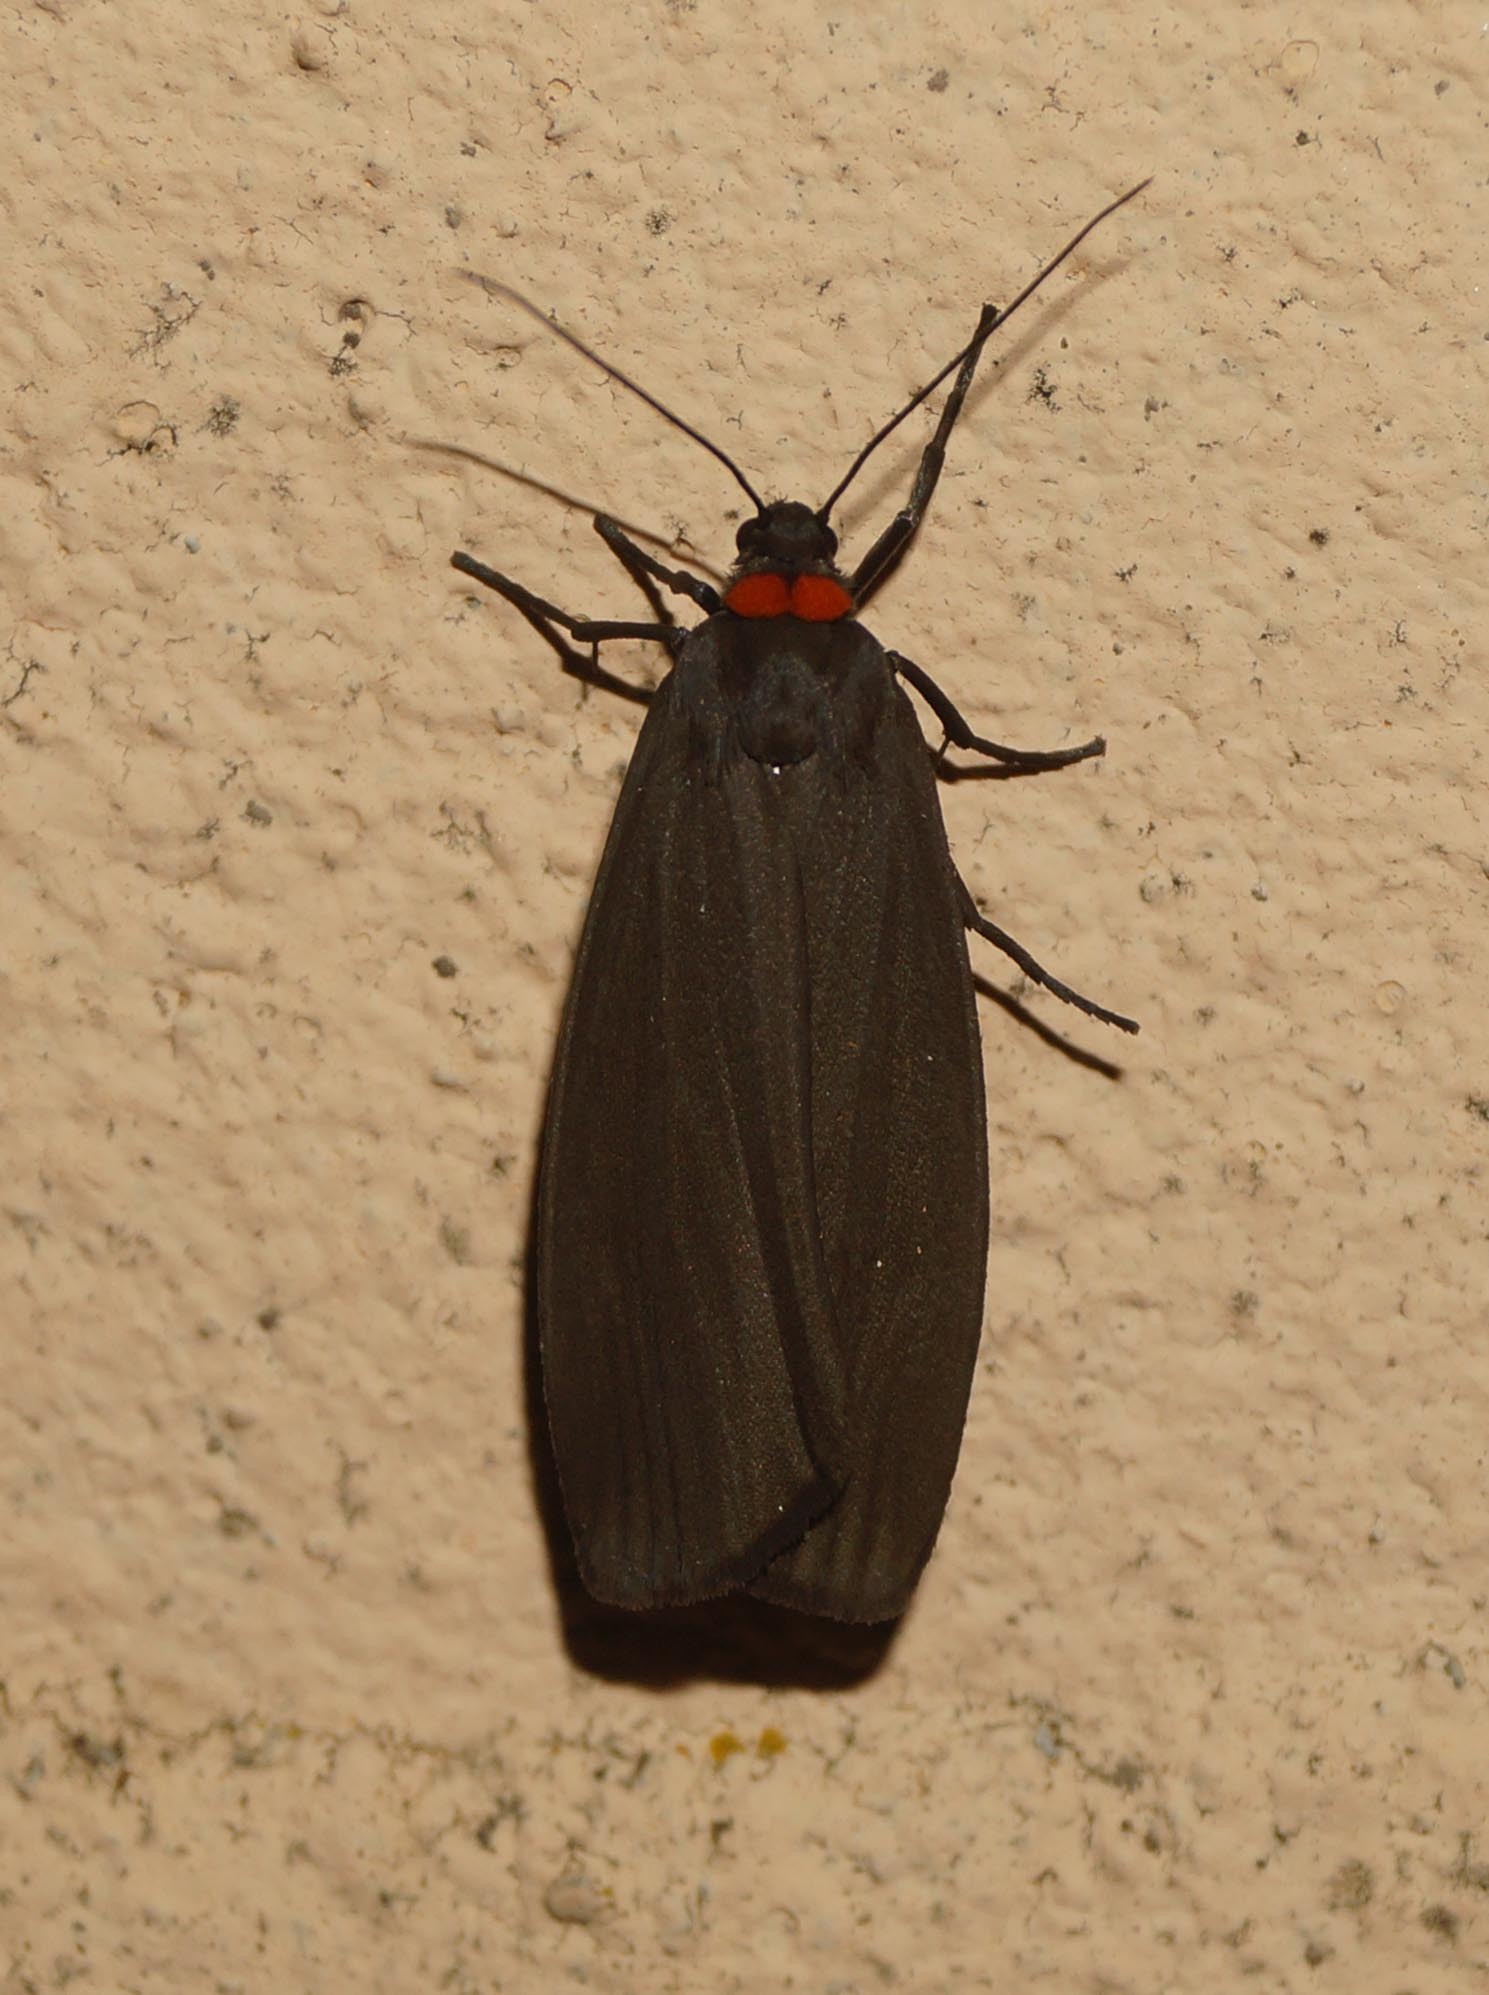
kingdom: Animalia
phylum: Arthropoda
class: Insecta
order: Lepidoptera
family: Erebidae
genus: Atolmis
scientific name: Atolmis rubricollis
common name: Red-necked footman
